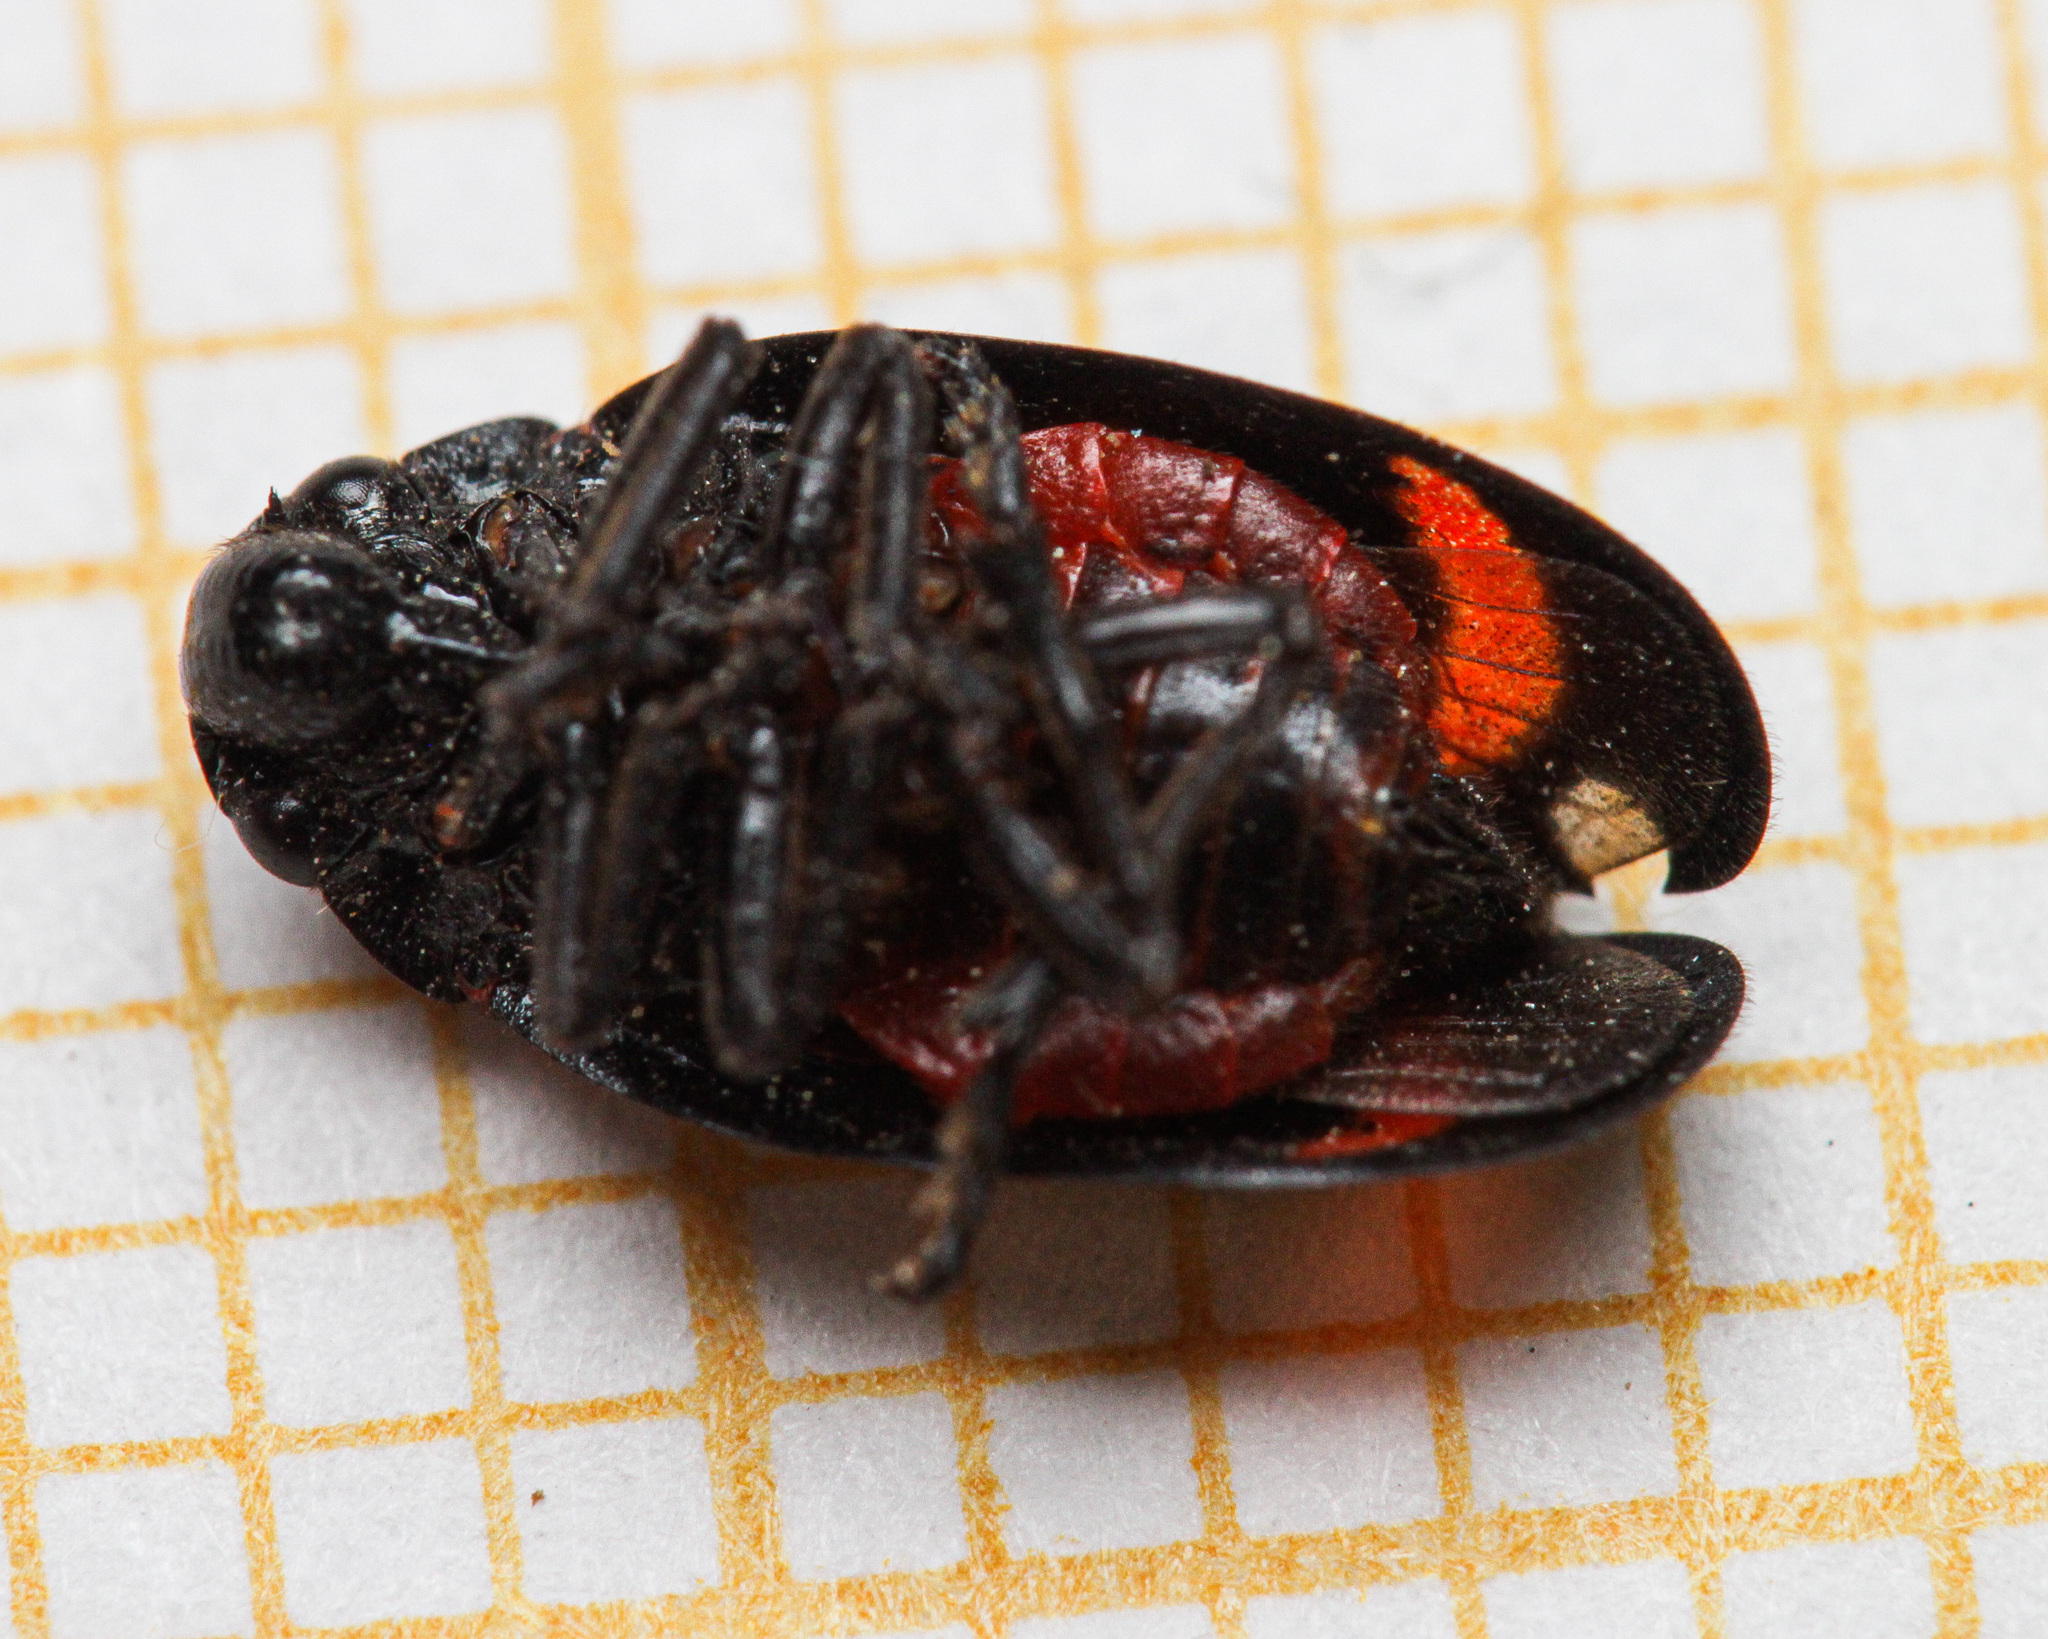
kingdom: Animalia
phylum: Arthropoda
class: Insecta
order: Hemiptera
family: Cercopidae
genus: Cercopis
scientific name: Cercopis arcuata
